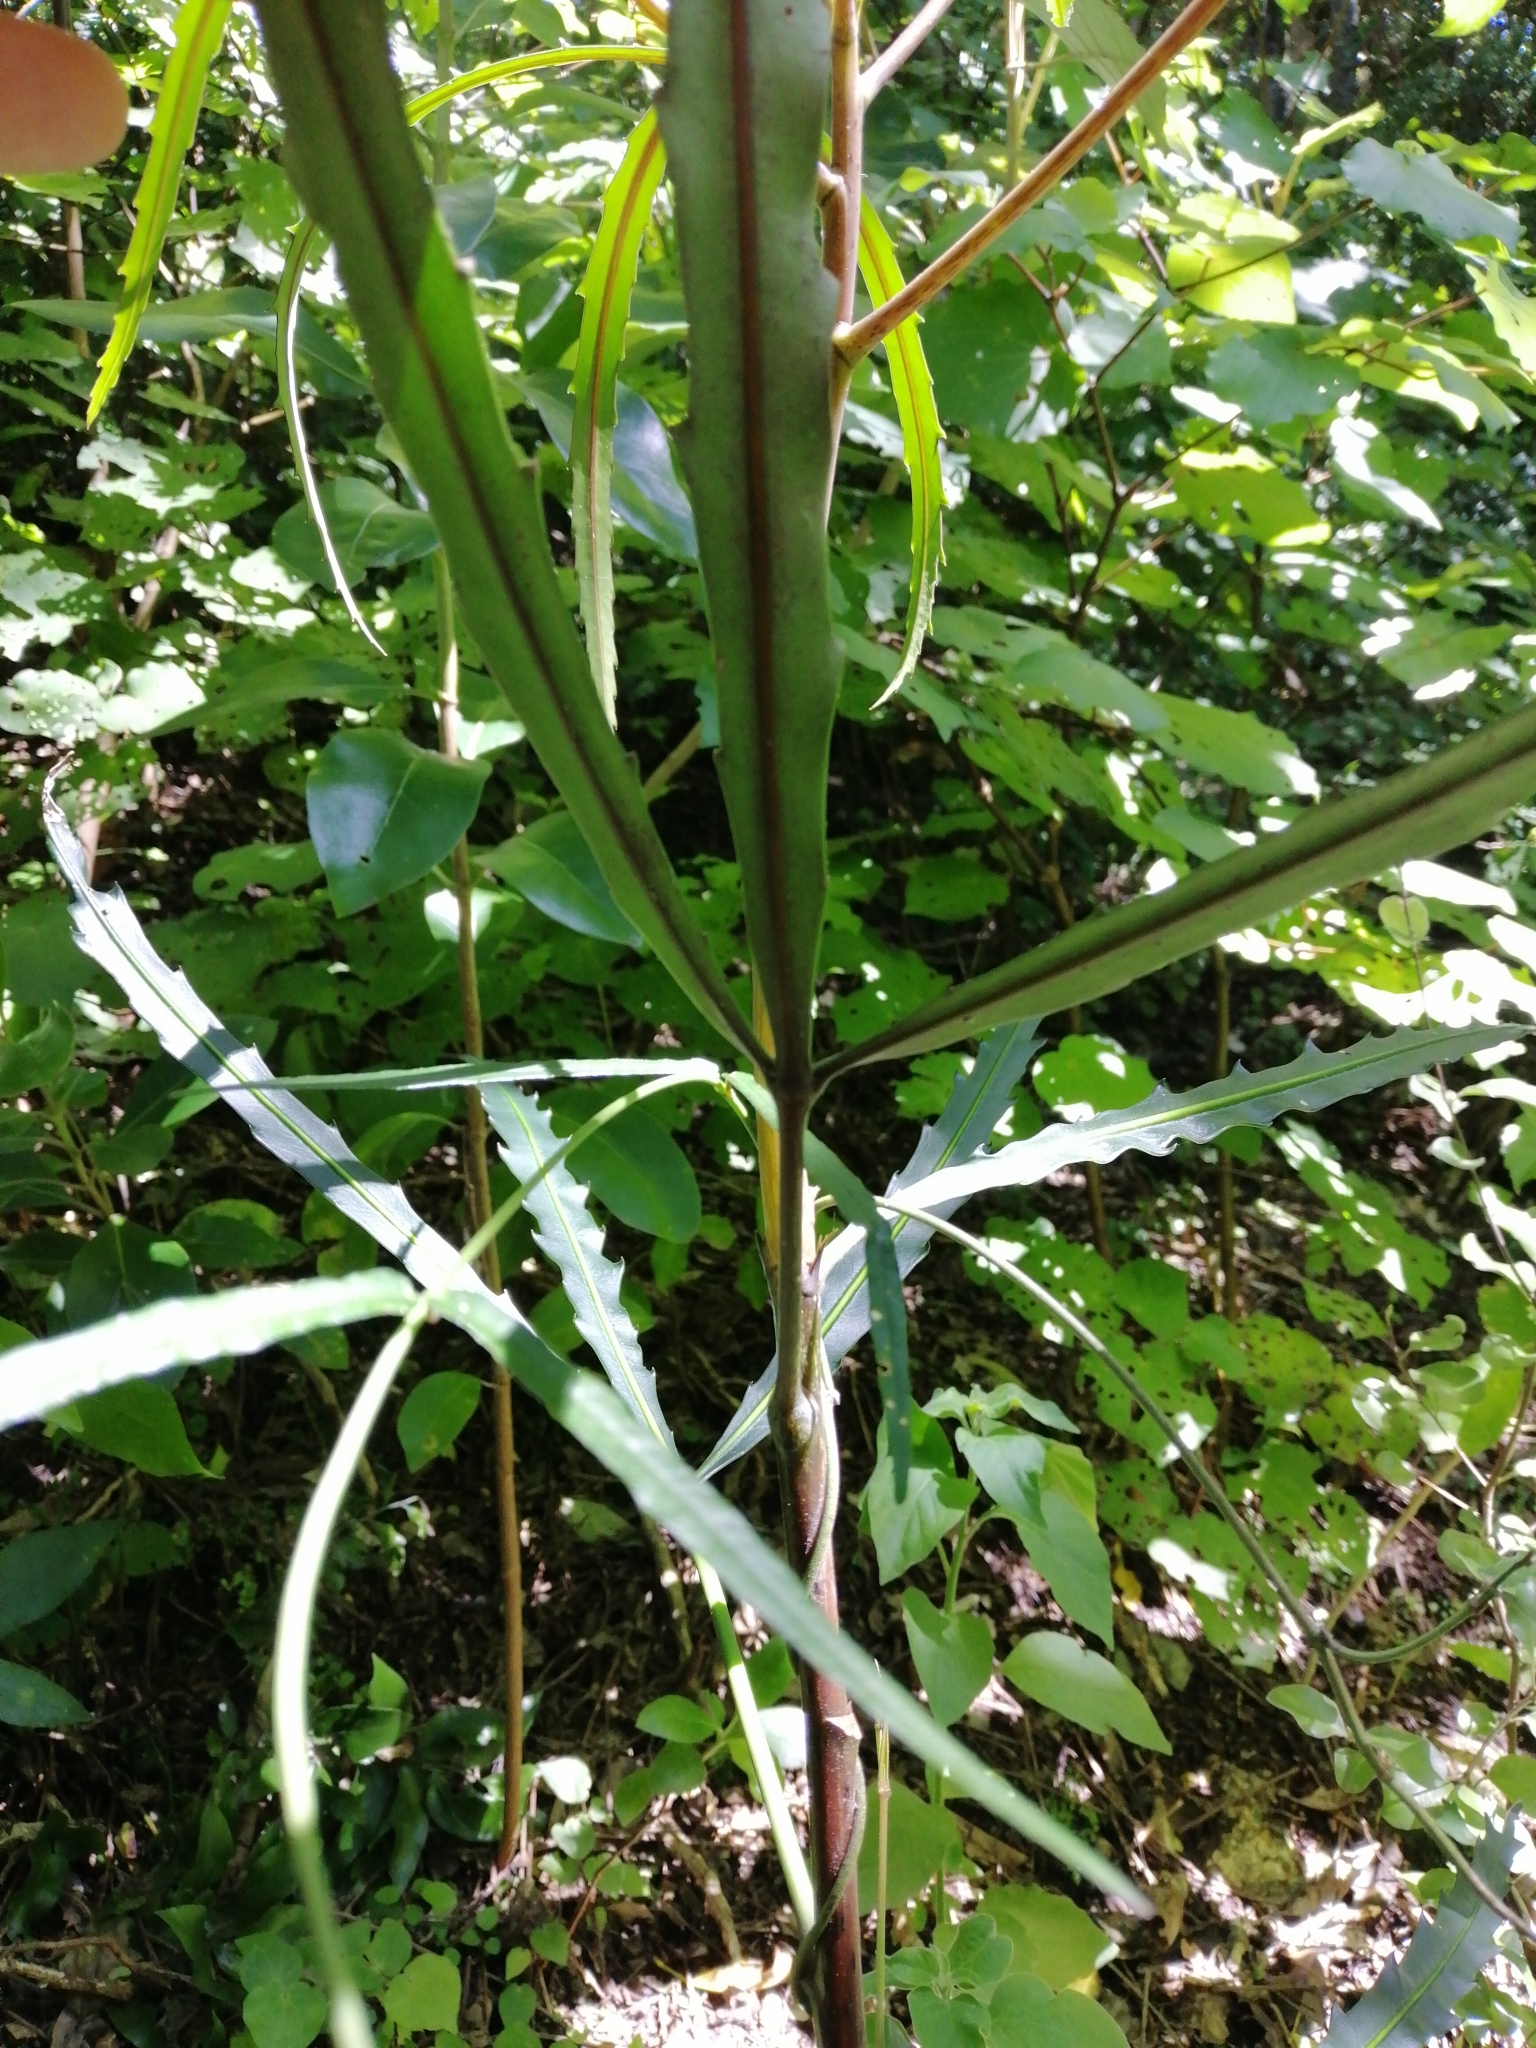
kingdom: Plantae
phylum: Tracheophyta
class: Magnoliopsida
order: Apiales
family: Araliaceae
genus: Pseudopanax
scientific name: Pseudopanax
